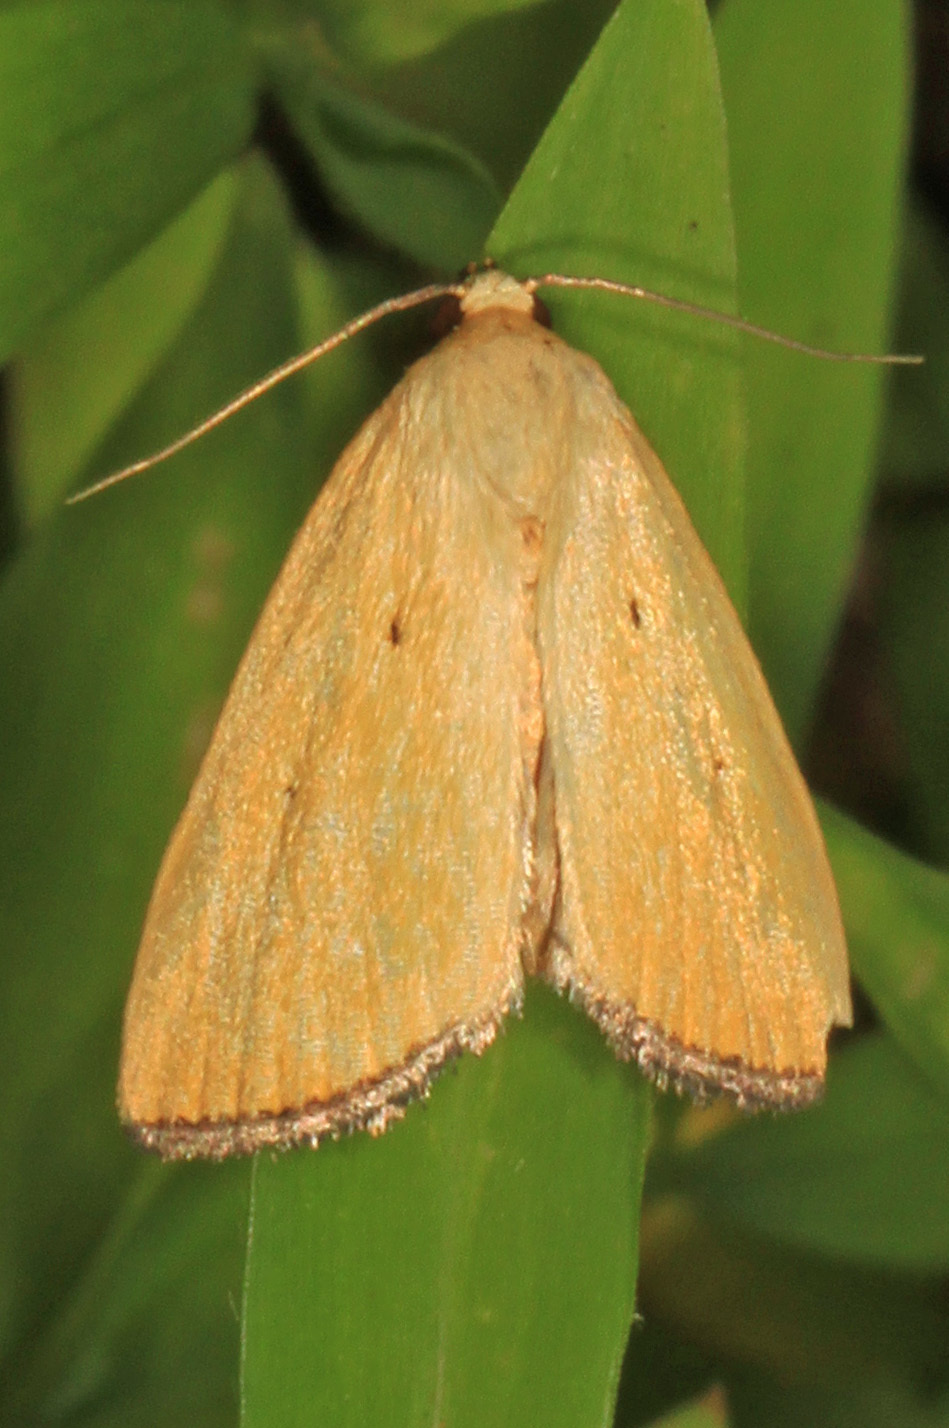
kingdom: Animalia
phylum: Arthropoda
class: Insecta
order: Lepidoptera
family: Noctuidae
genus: Marimatha
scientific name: Marimatha nigrofimbria
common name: Black-bordered lemon moth
